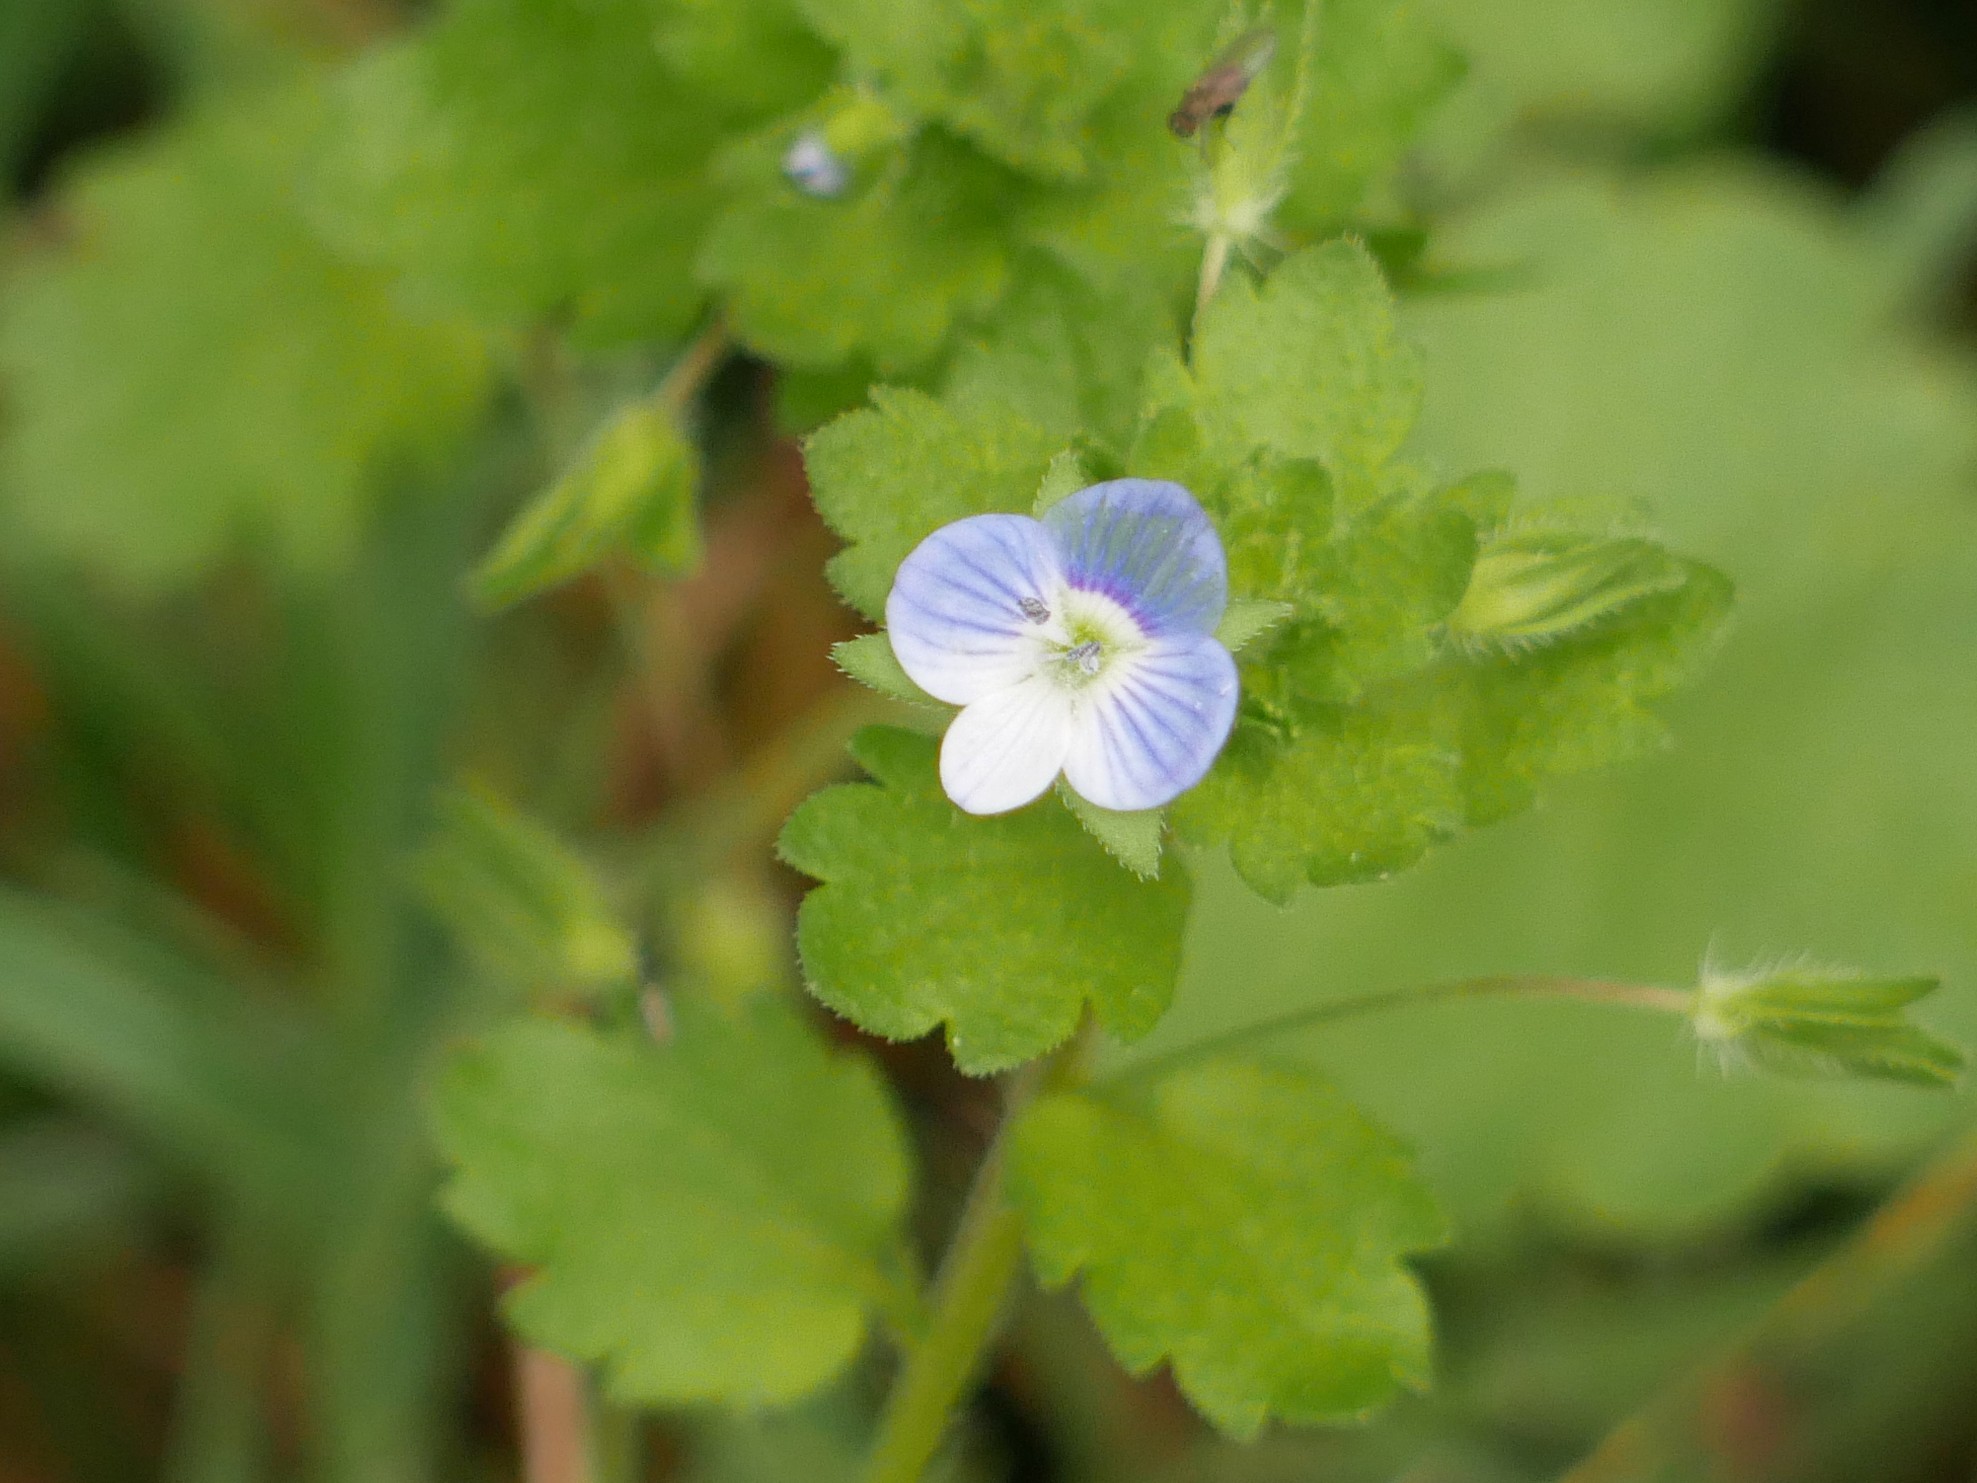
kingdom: Plantae
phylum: Tracheophyta
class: Magnoliopsida
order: Lamiales
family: Plantaginaceae
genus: Veronica
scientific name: Veronica persica
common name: Common field-speedwell
